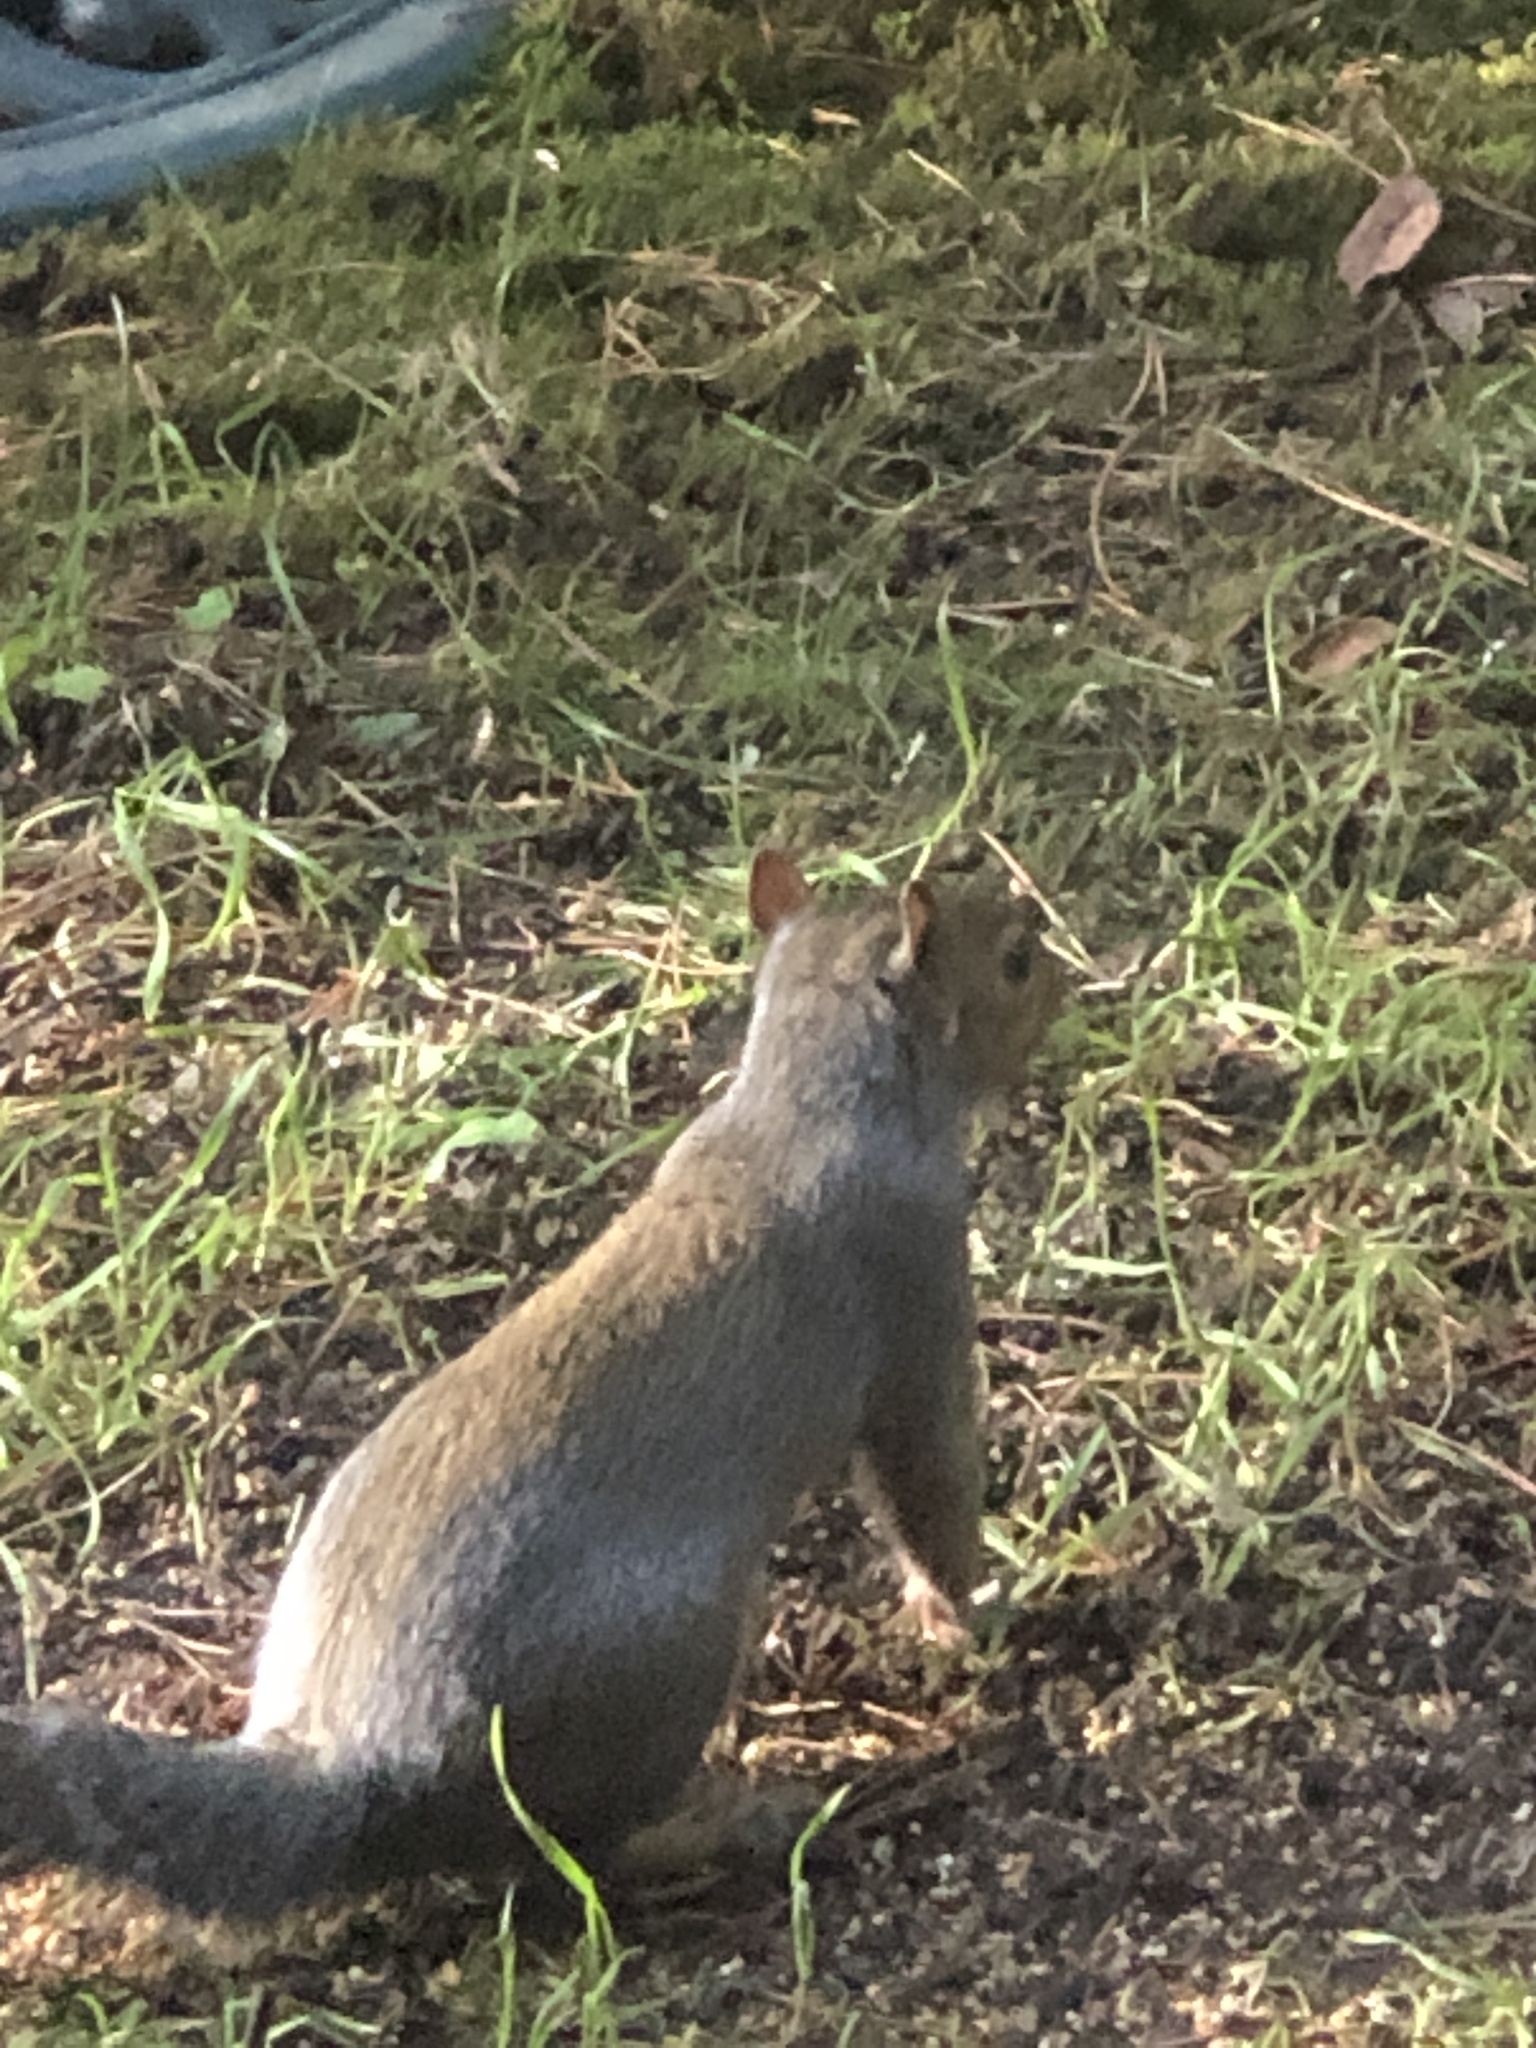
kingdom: Animalia
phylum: Chordata
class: Mammalia
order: Rodentia
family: Sciuridae
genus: Sciurus
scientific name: Sciurus carolinensis
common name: Eastern gray squirrel
